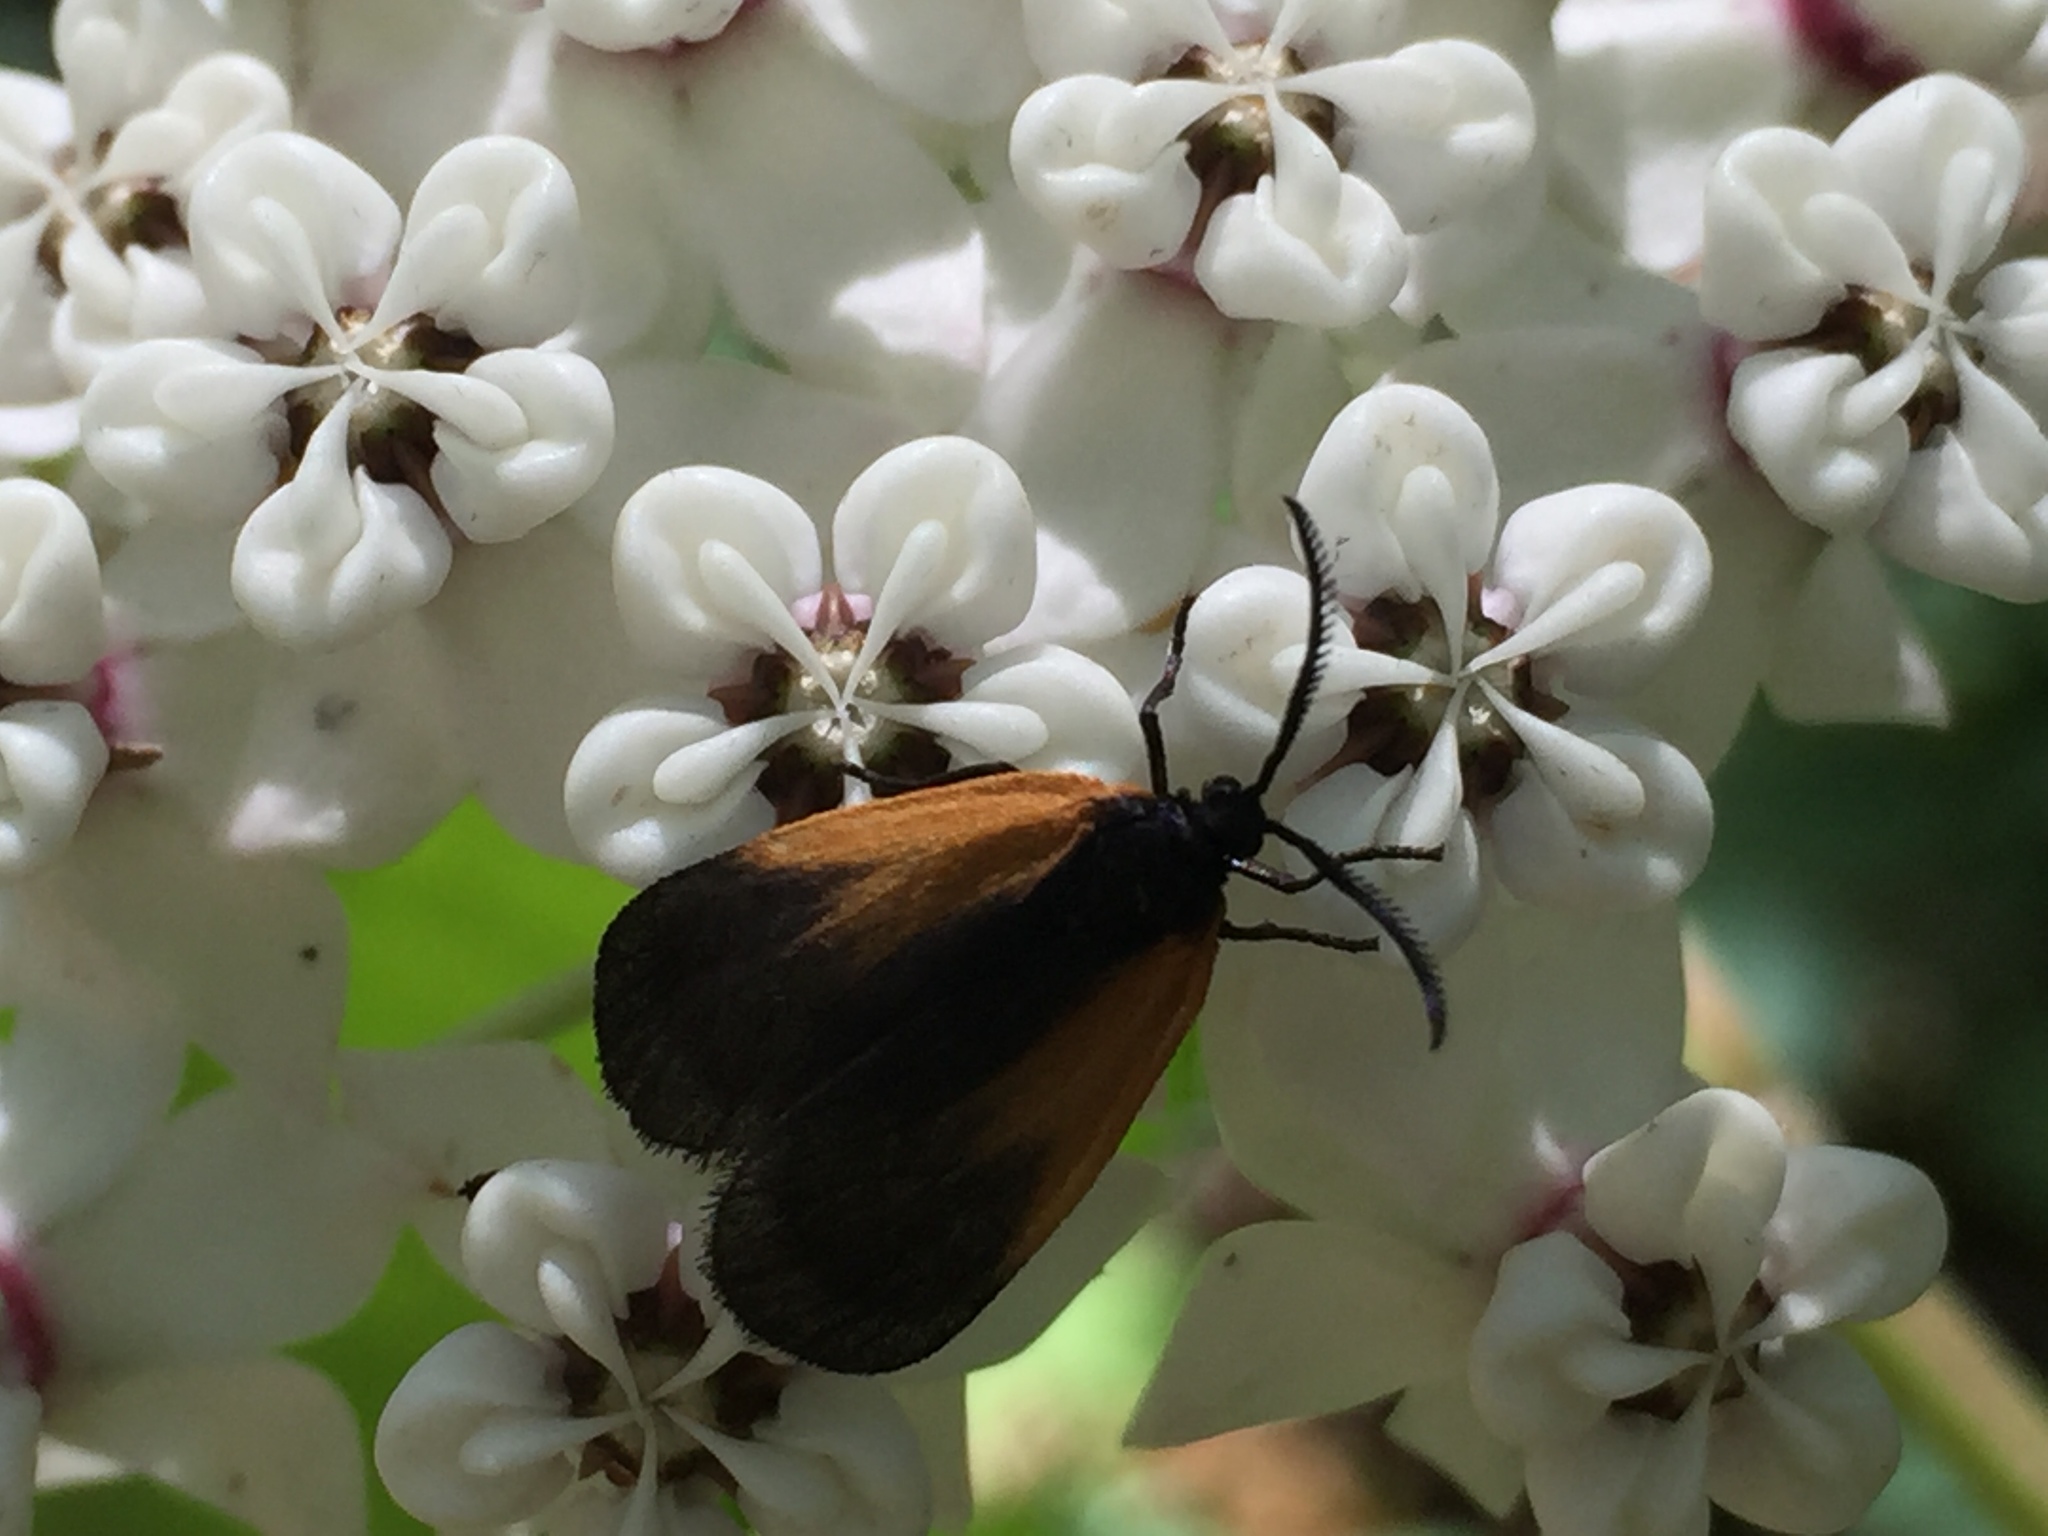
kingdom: Animalia
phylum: Arthropoda
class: Insecta
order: Lepidoptera
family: Zygaenidae
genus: Malthaca
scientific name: Malthaca dimidiata
